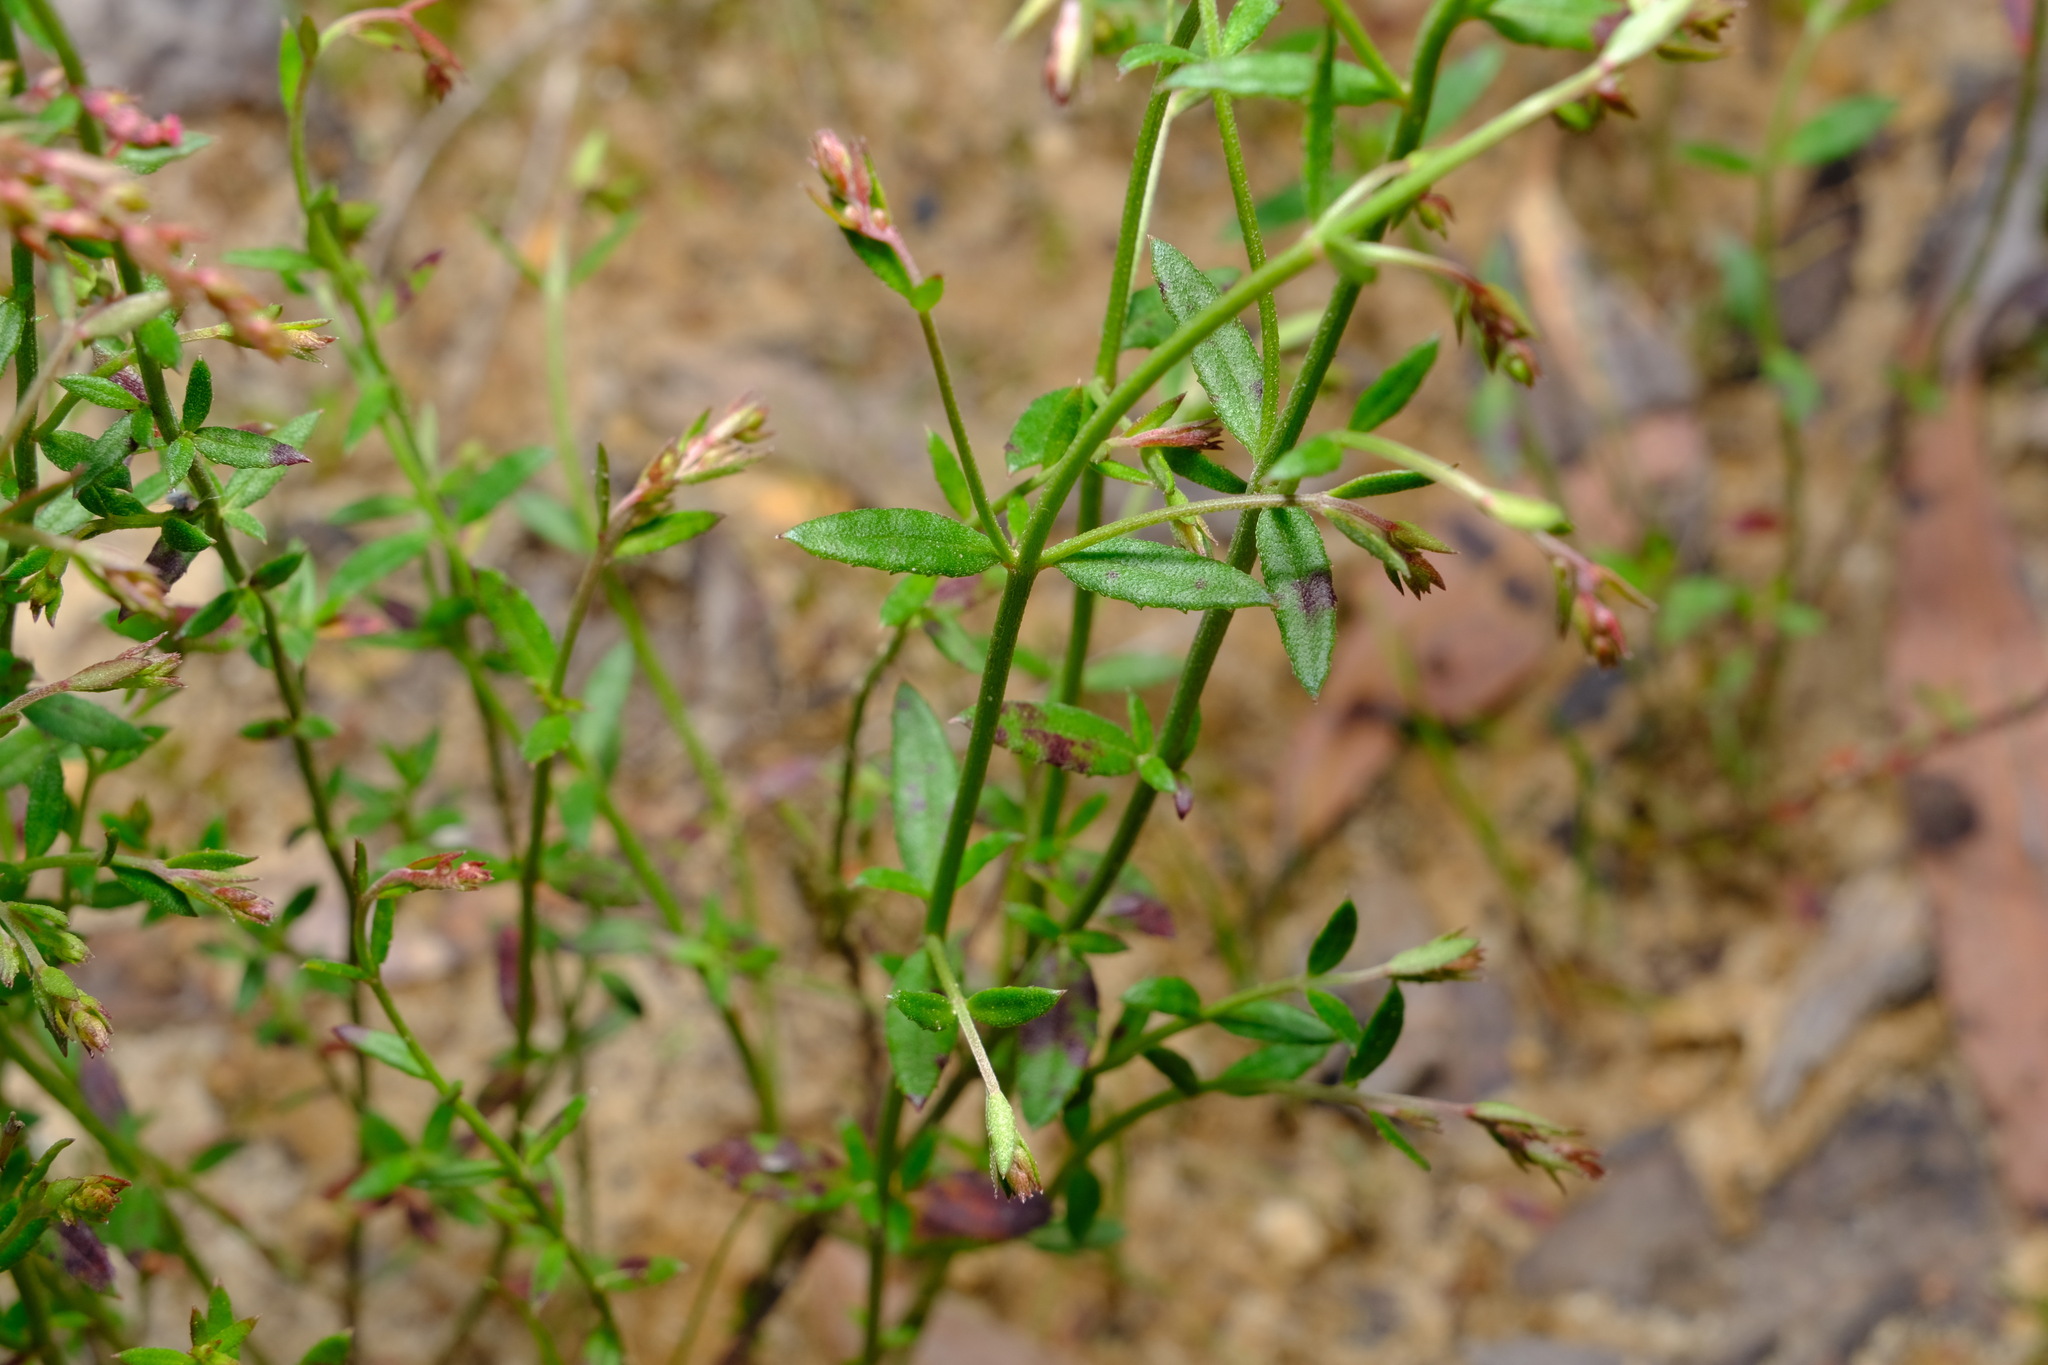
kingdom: Plantae
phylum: Tracheophyta
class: Magnoliopsida
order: Saxifragales
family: Haloragaceae
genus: Gonocarpus
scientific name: Gonocarpus tetragynus
